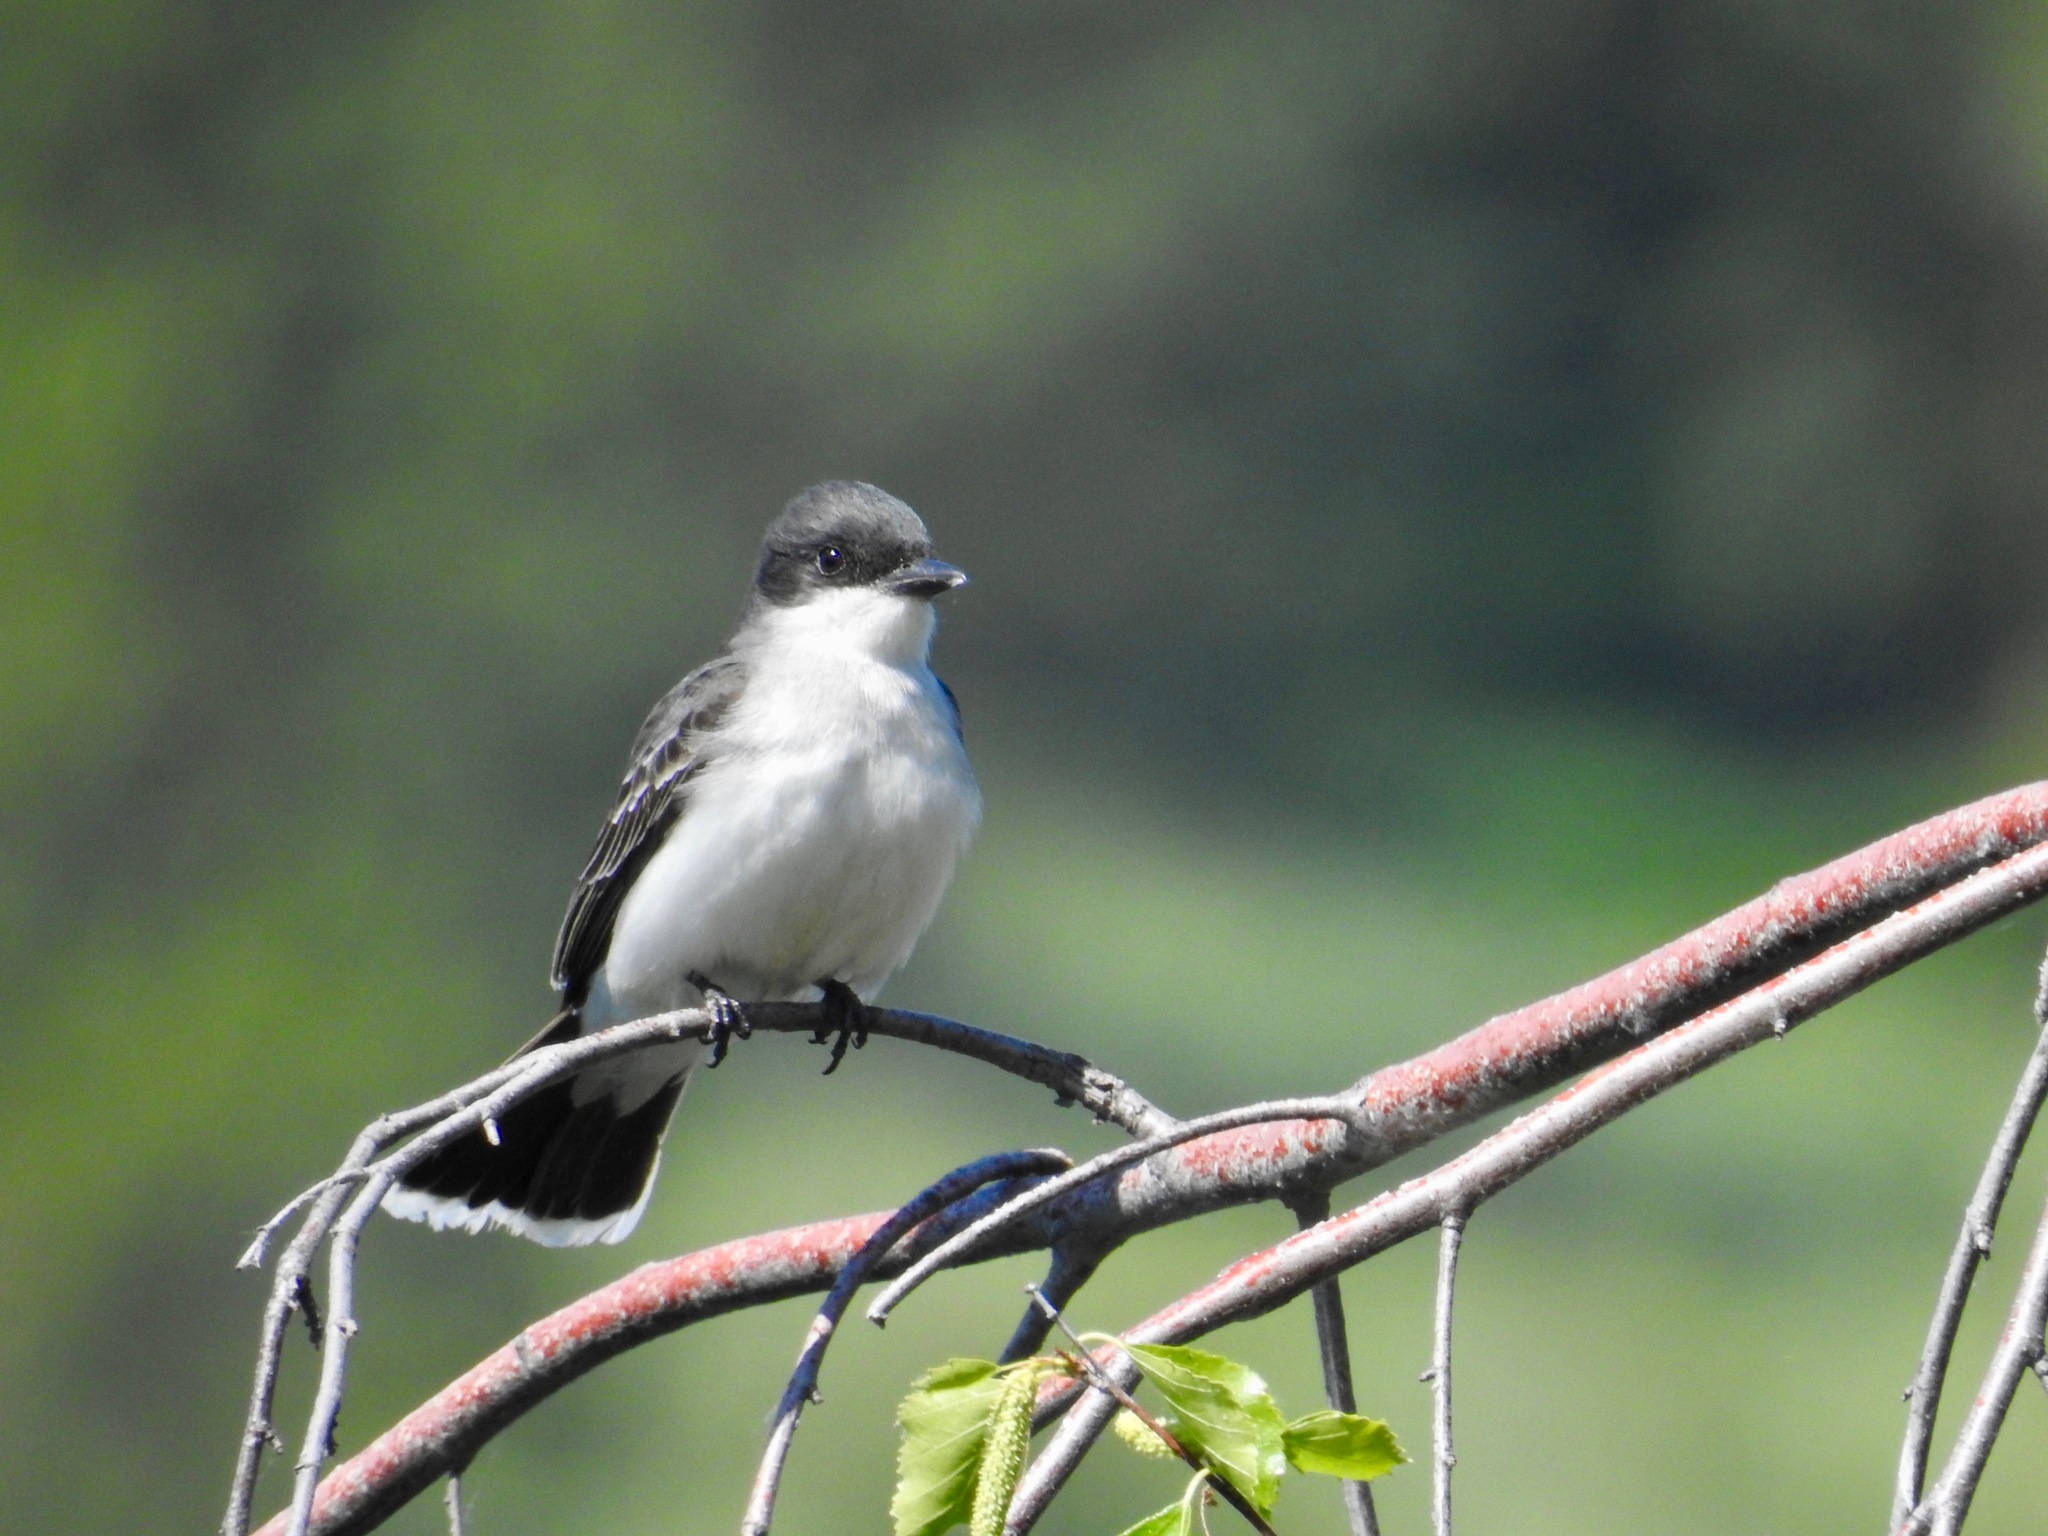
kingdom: Animalia
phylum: Chordata
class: Aves
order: Passeriformes
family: Tyrannidae
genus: Tyrannus
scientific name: Tyrannus tyrannus
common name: Eastern kingbird
